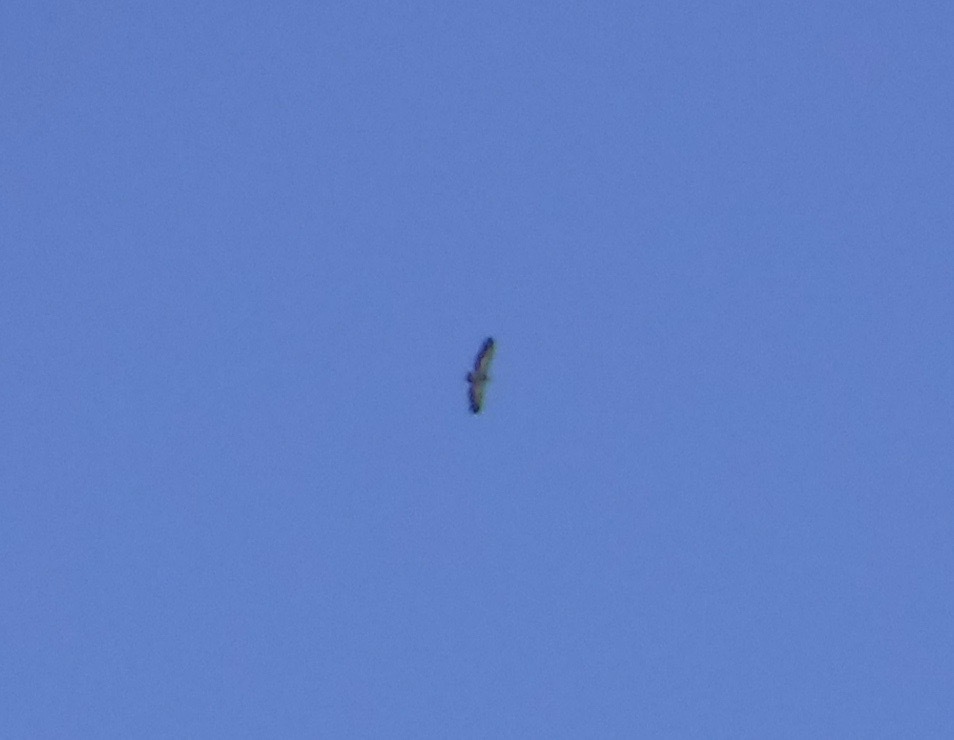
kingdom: Animalia
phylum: Chordata
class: Aves
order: Accipitriformes
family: Accipitridae
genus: Gyps
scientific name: Gyps fulvus
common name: Griffon vulture
